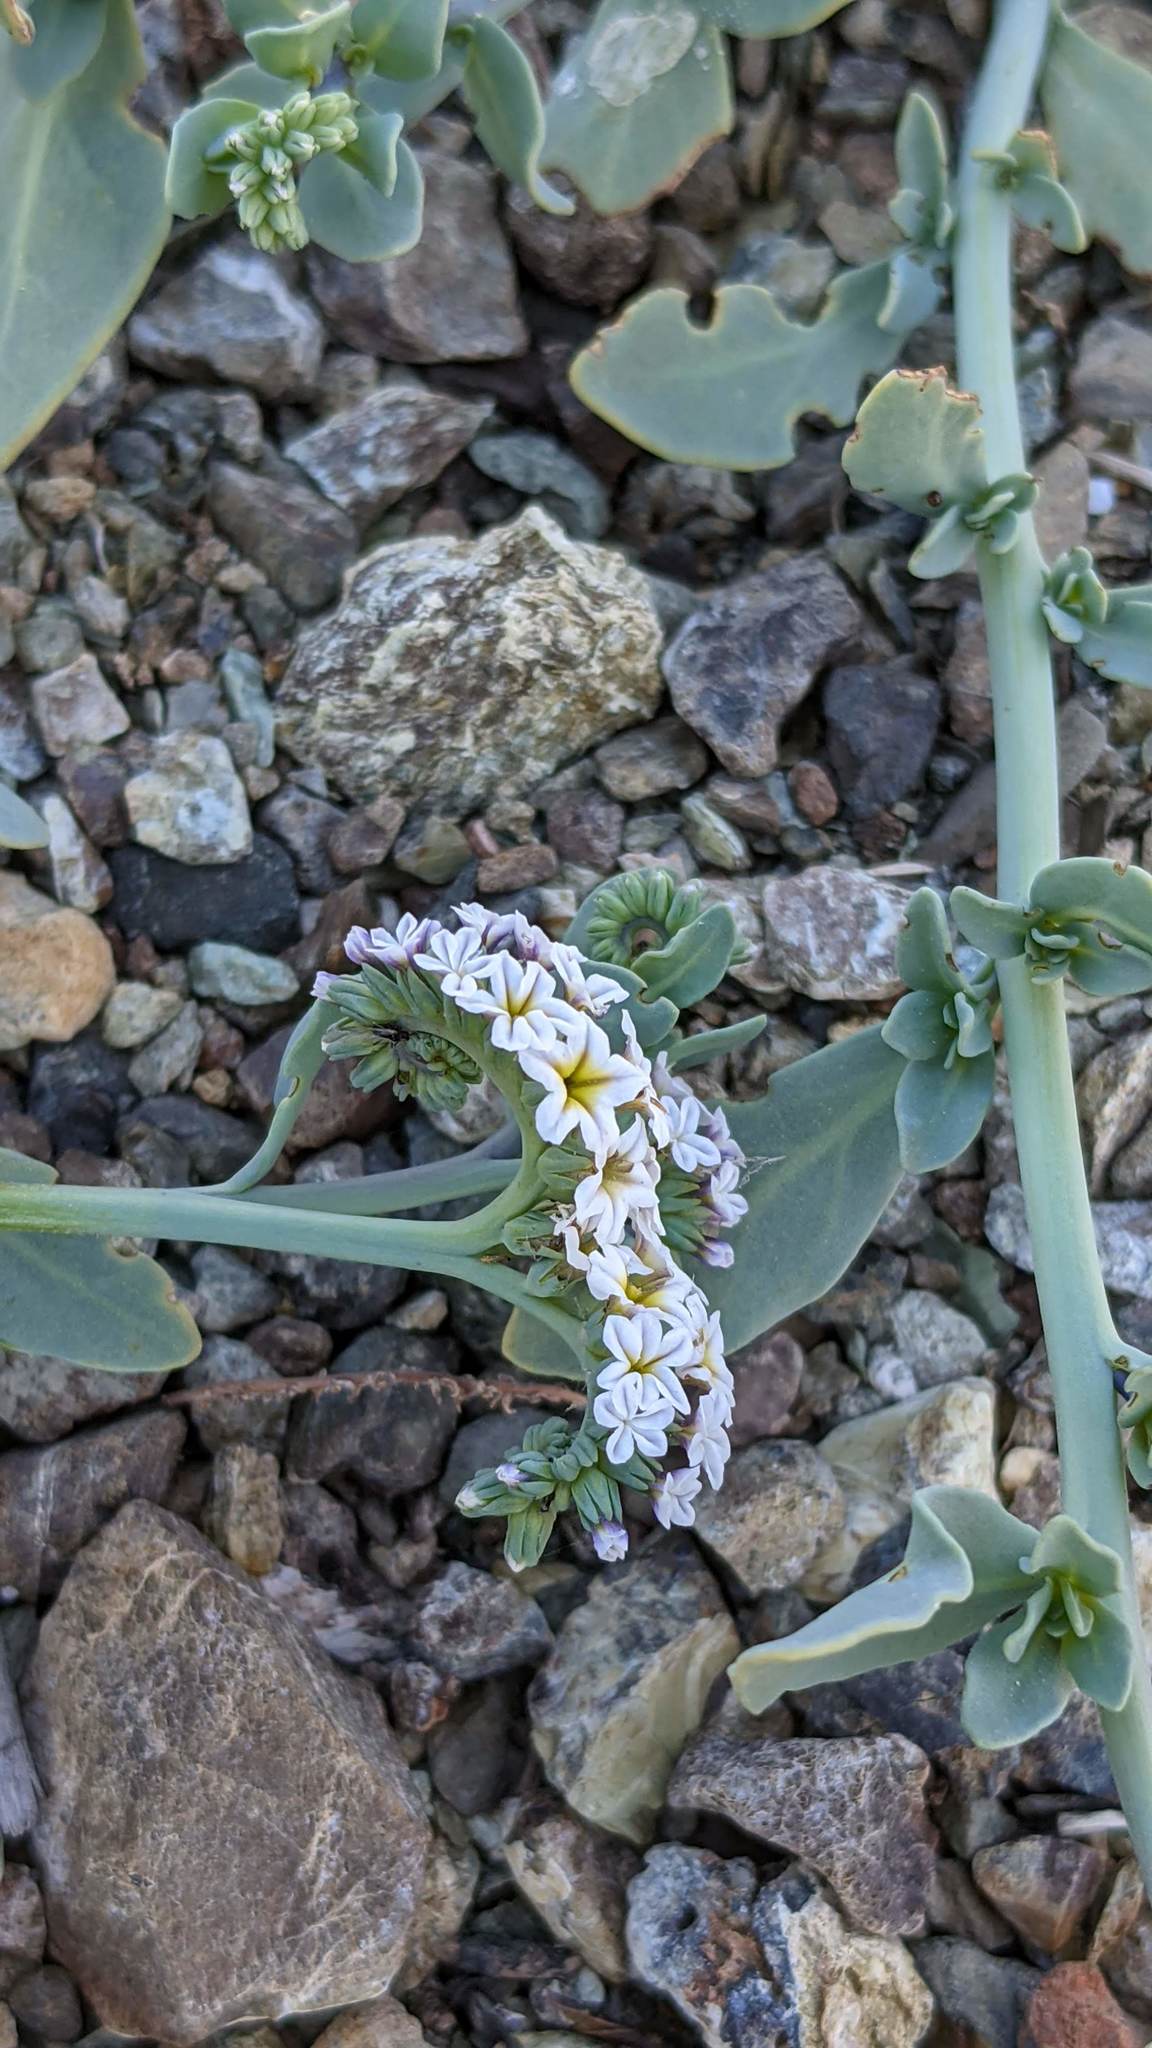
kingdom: Plantae
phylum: Tracheophyta
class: Magnoliopsida
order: Boraginales
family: Heliotropiaceae
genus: Heliotropium
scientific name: Heliotropium curassavicum
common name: Seaside heliotrope
